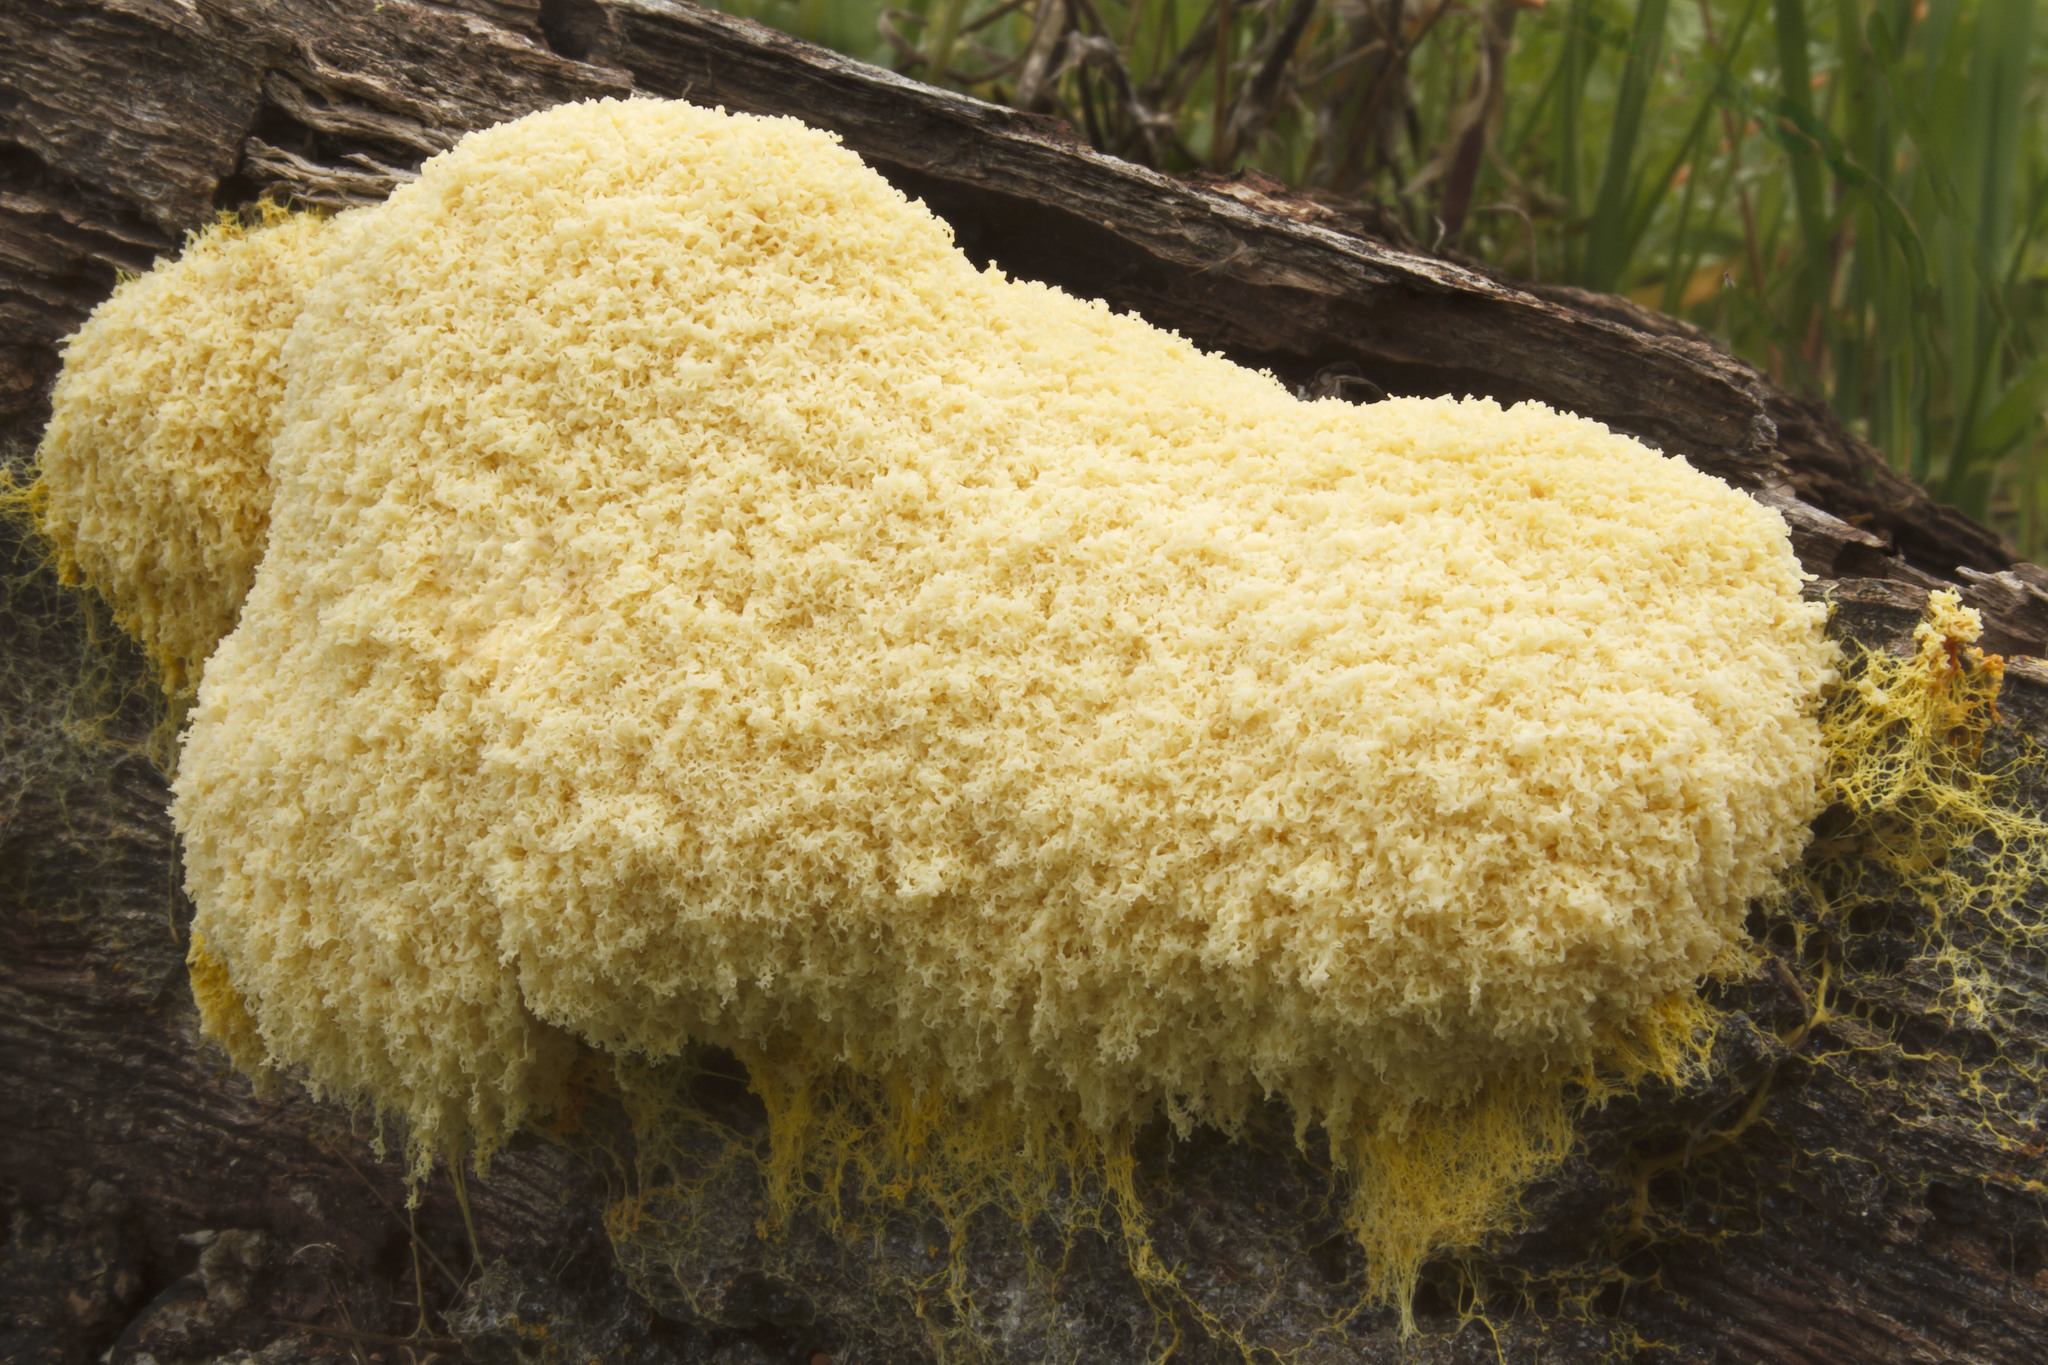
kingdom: Protozoa
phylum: Mycetozoa
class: Myxomycetes
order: Physarales
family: Physaraceae
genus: Fuligo
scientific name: Fuligo septica
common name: Dog vomit slime mold
